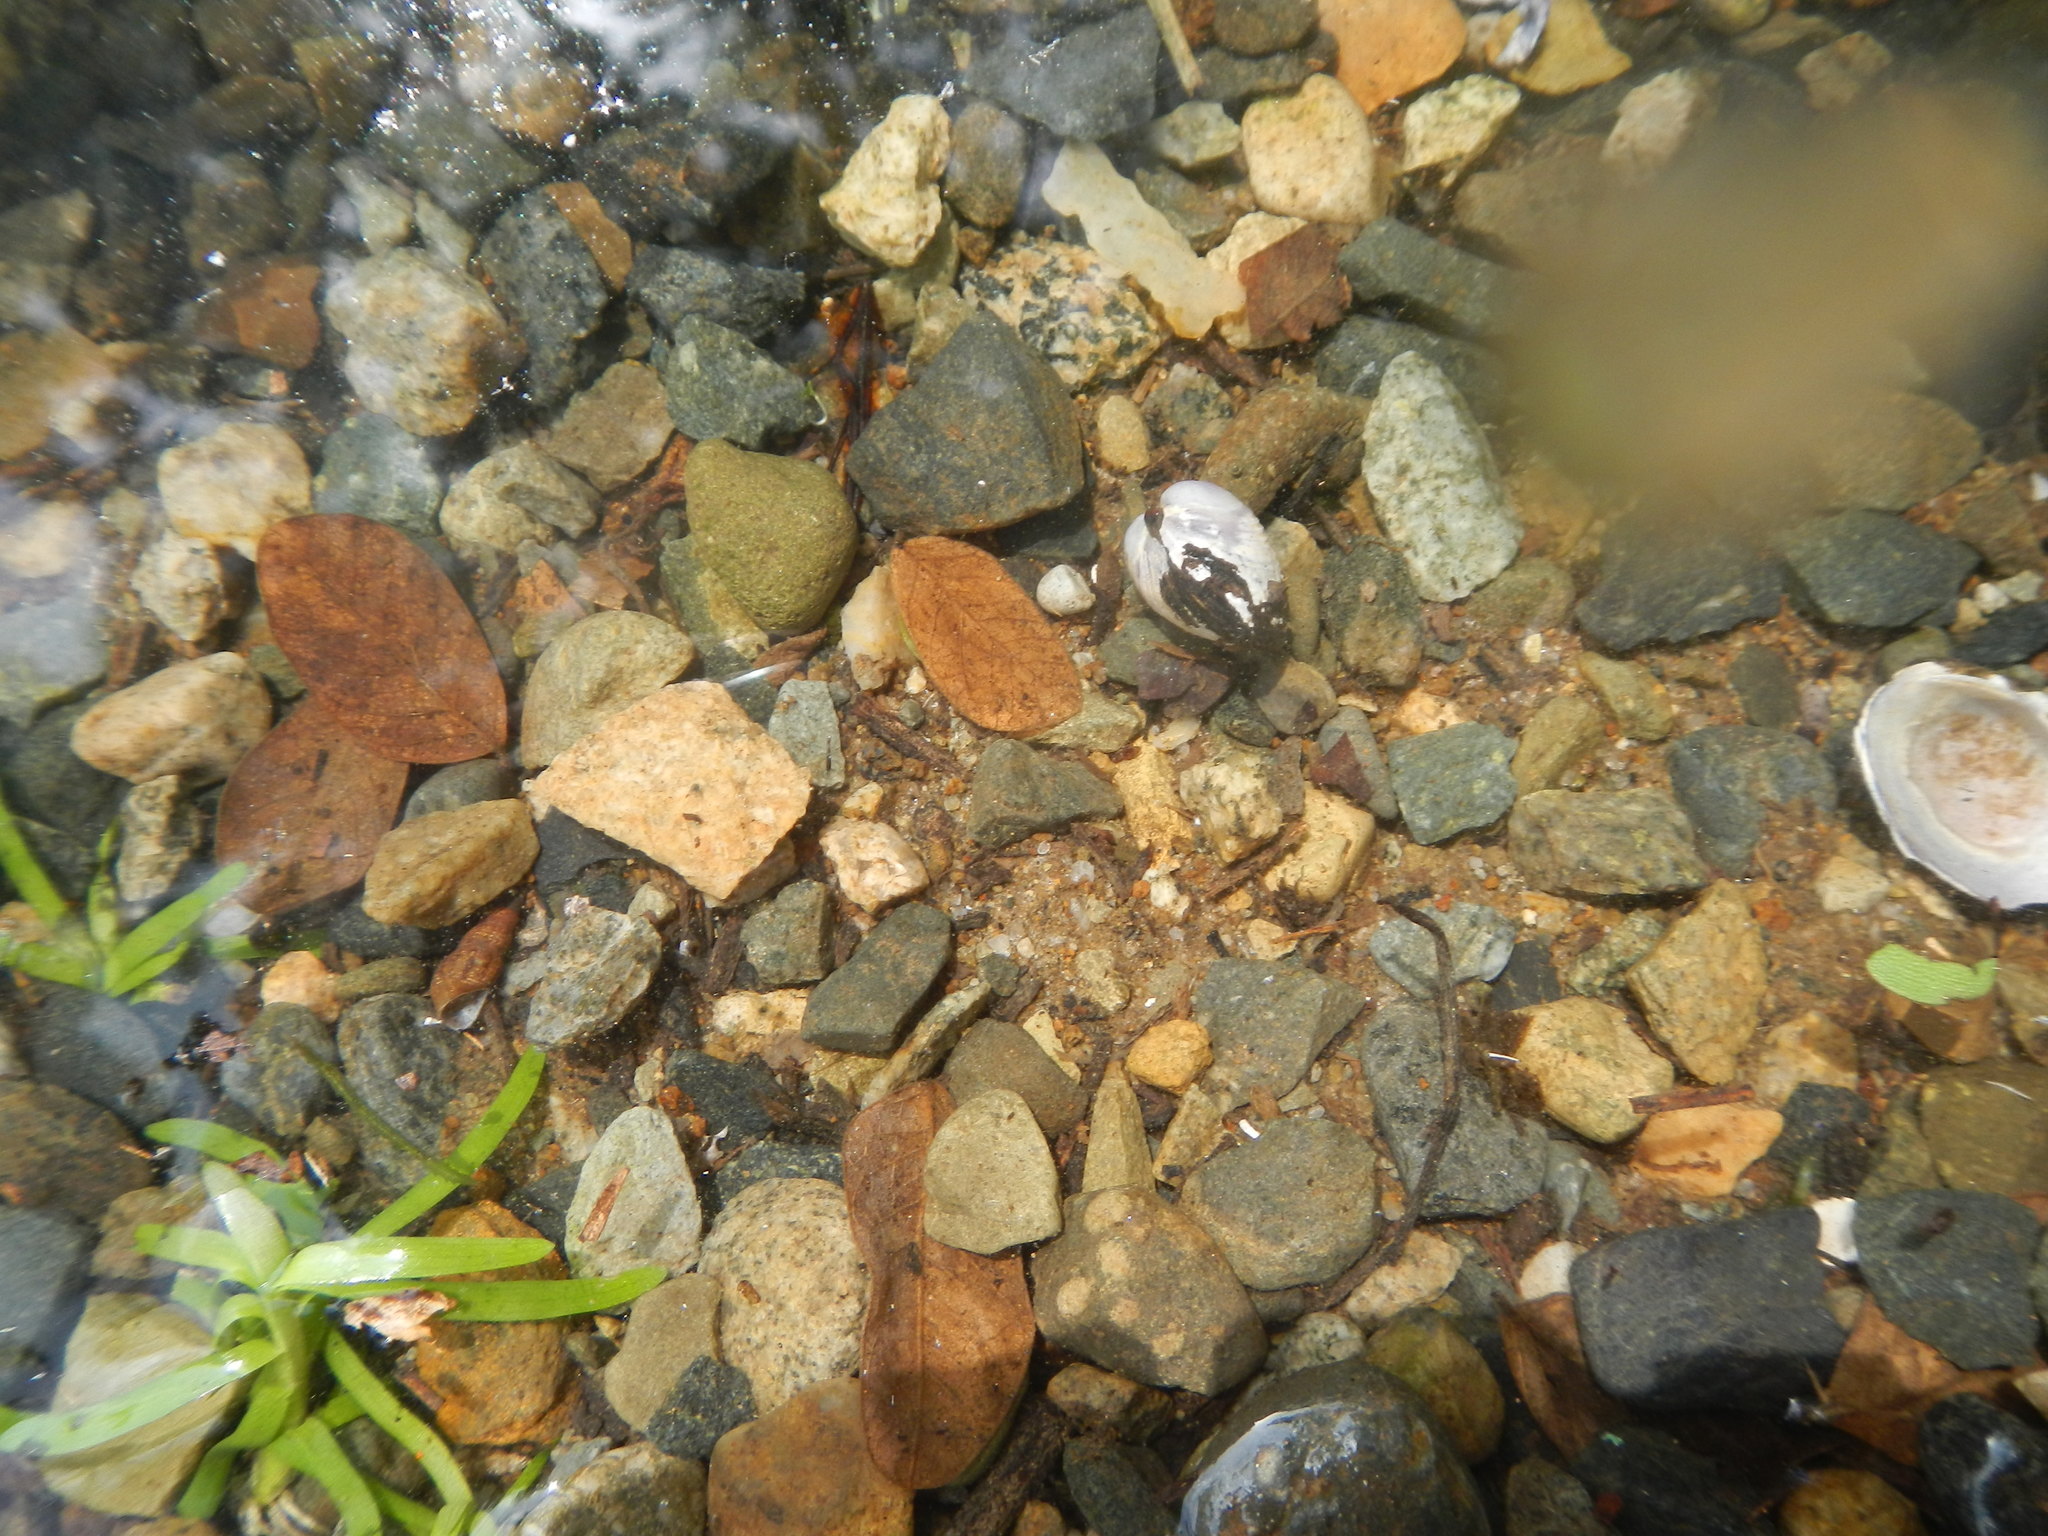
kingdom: Animalia
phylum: Mollusca
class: Bivalvia
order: Venerida
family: Cyrenidae
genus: Corbicula
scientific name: Corbicula fluminea
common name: Asian clam
